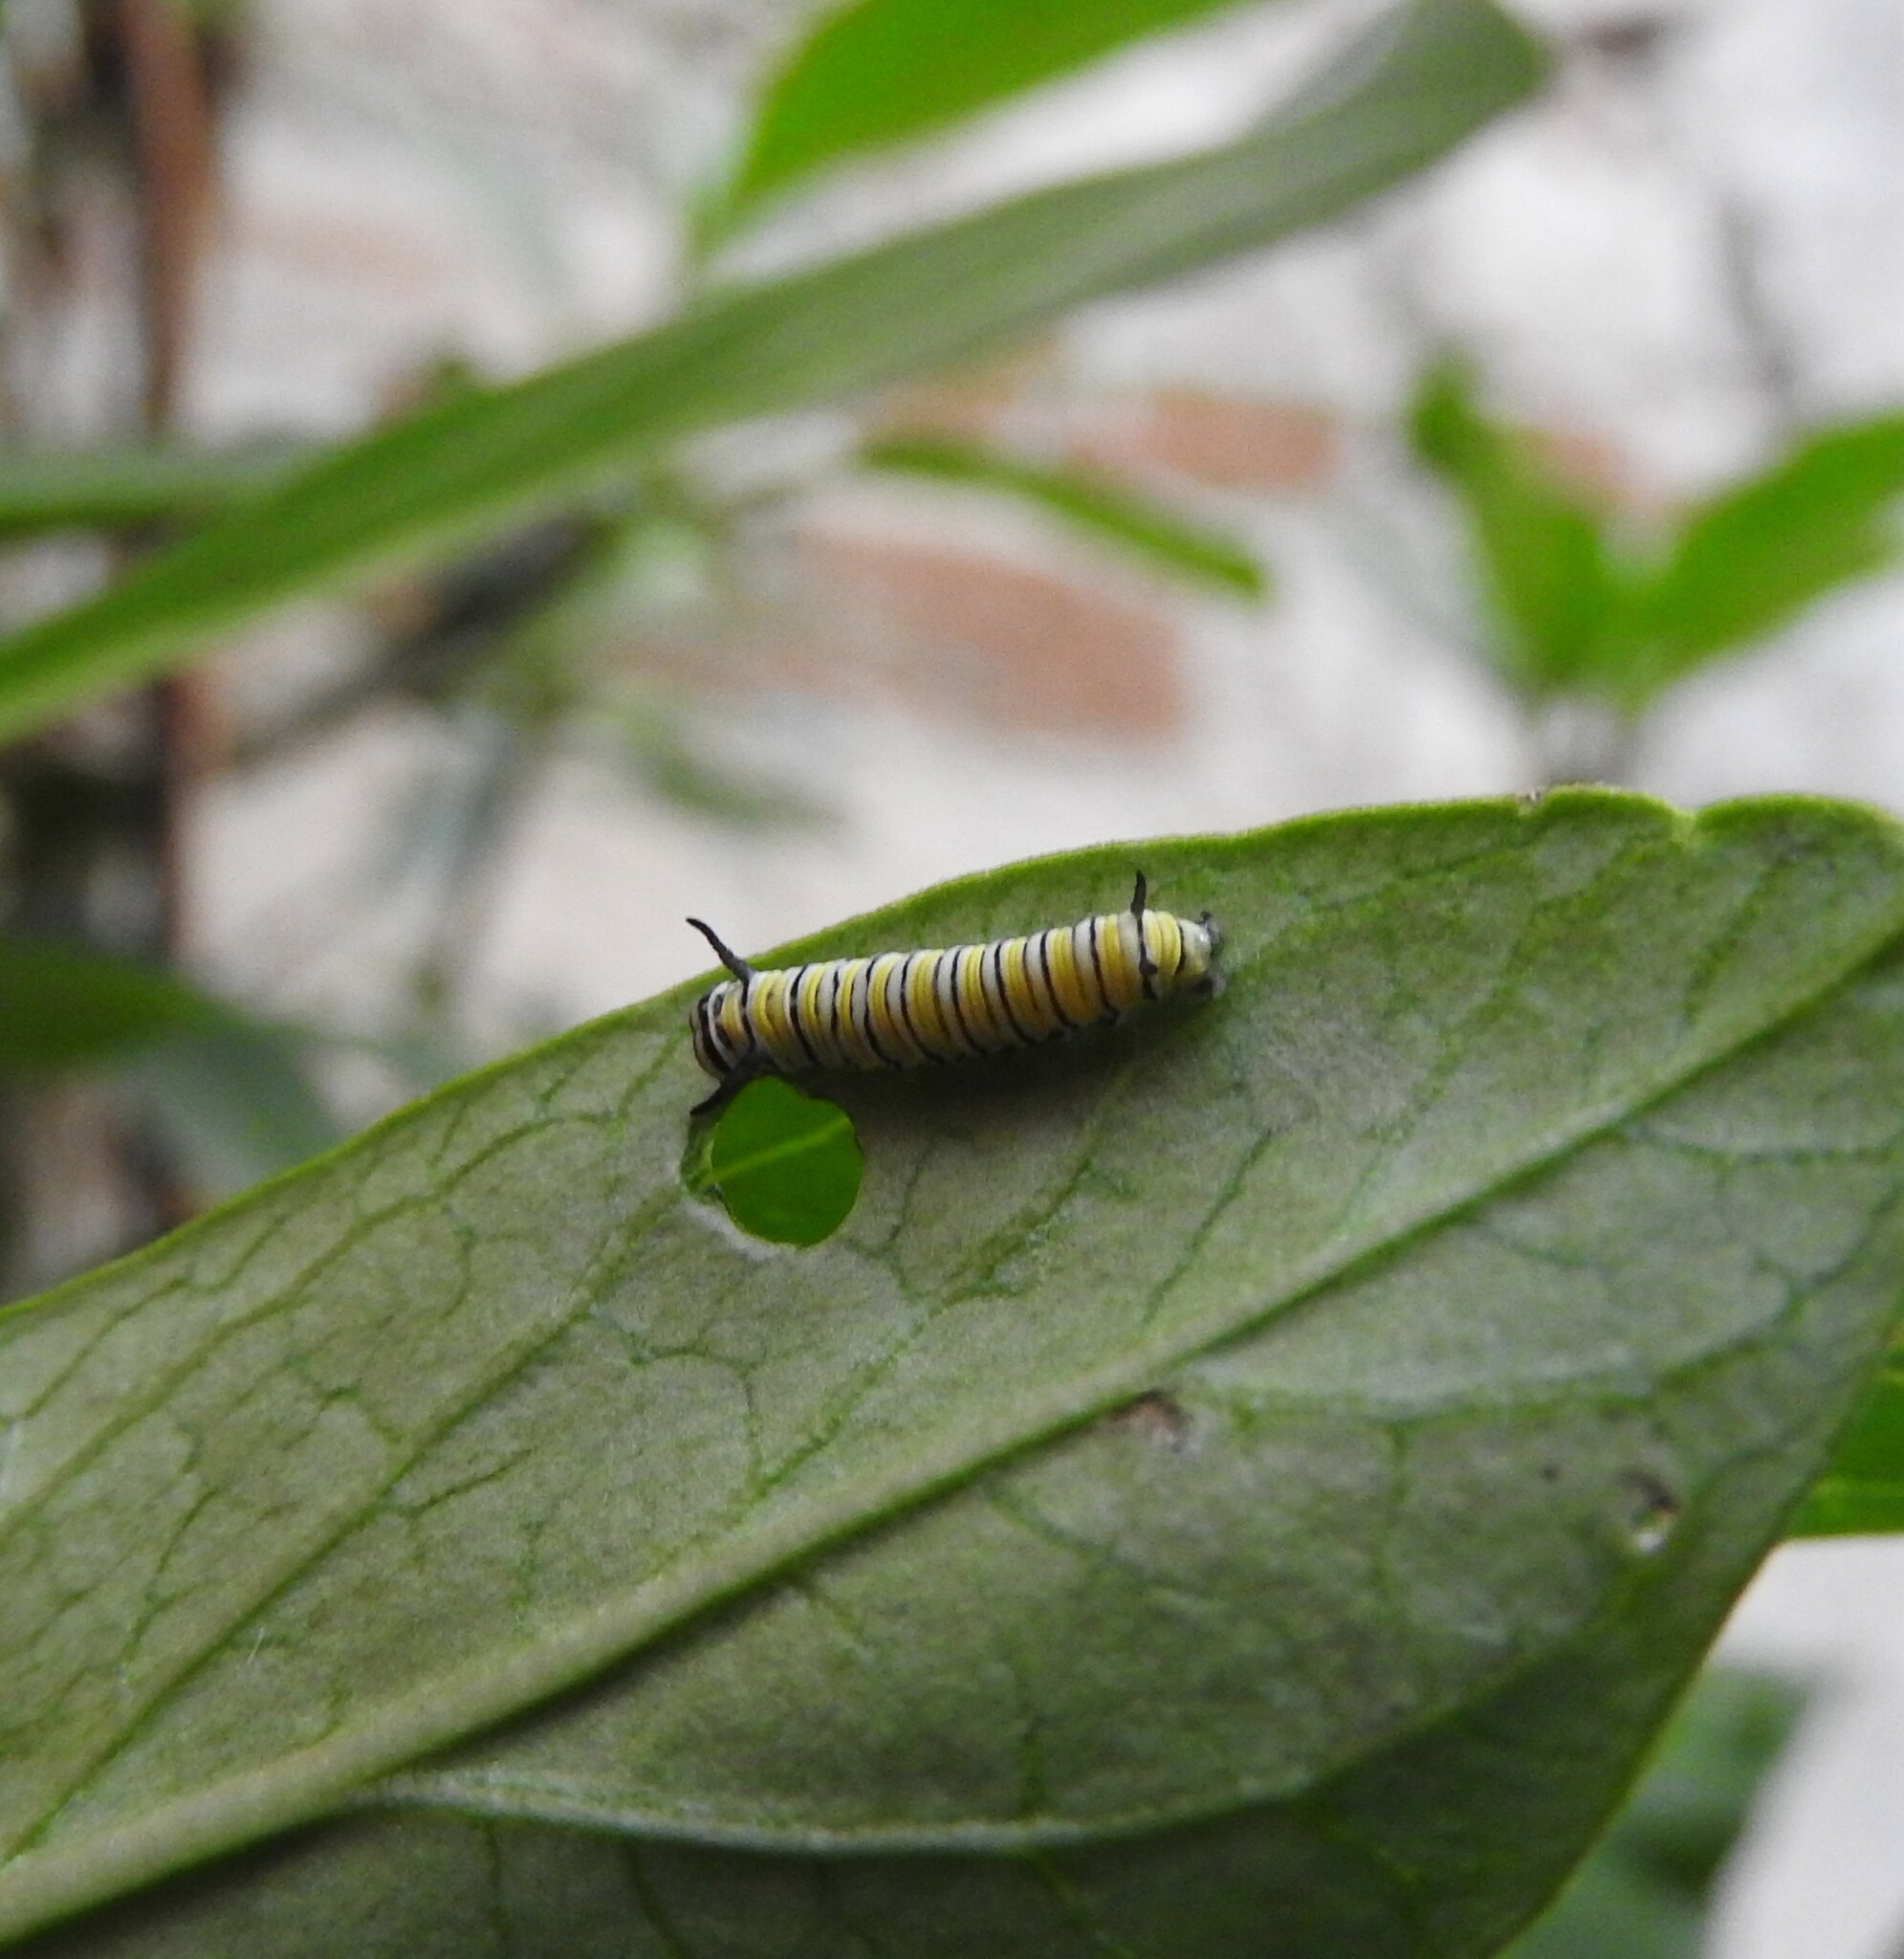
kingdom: Animalia
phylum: Arthropoda
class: Insecta
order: Lepidoptera
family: Nymphalidae
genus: Danaus
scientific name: Danaus plexippus
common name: Monarch
